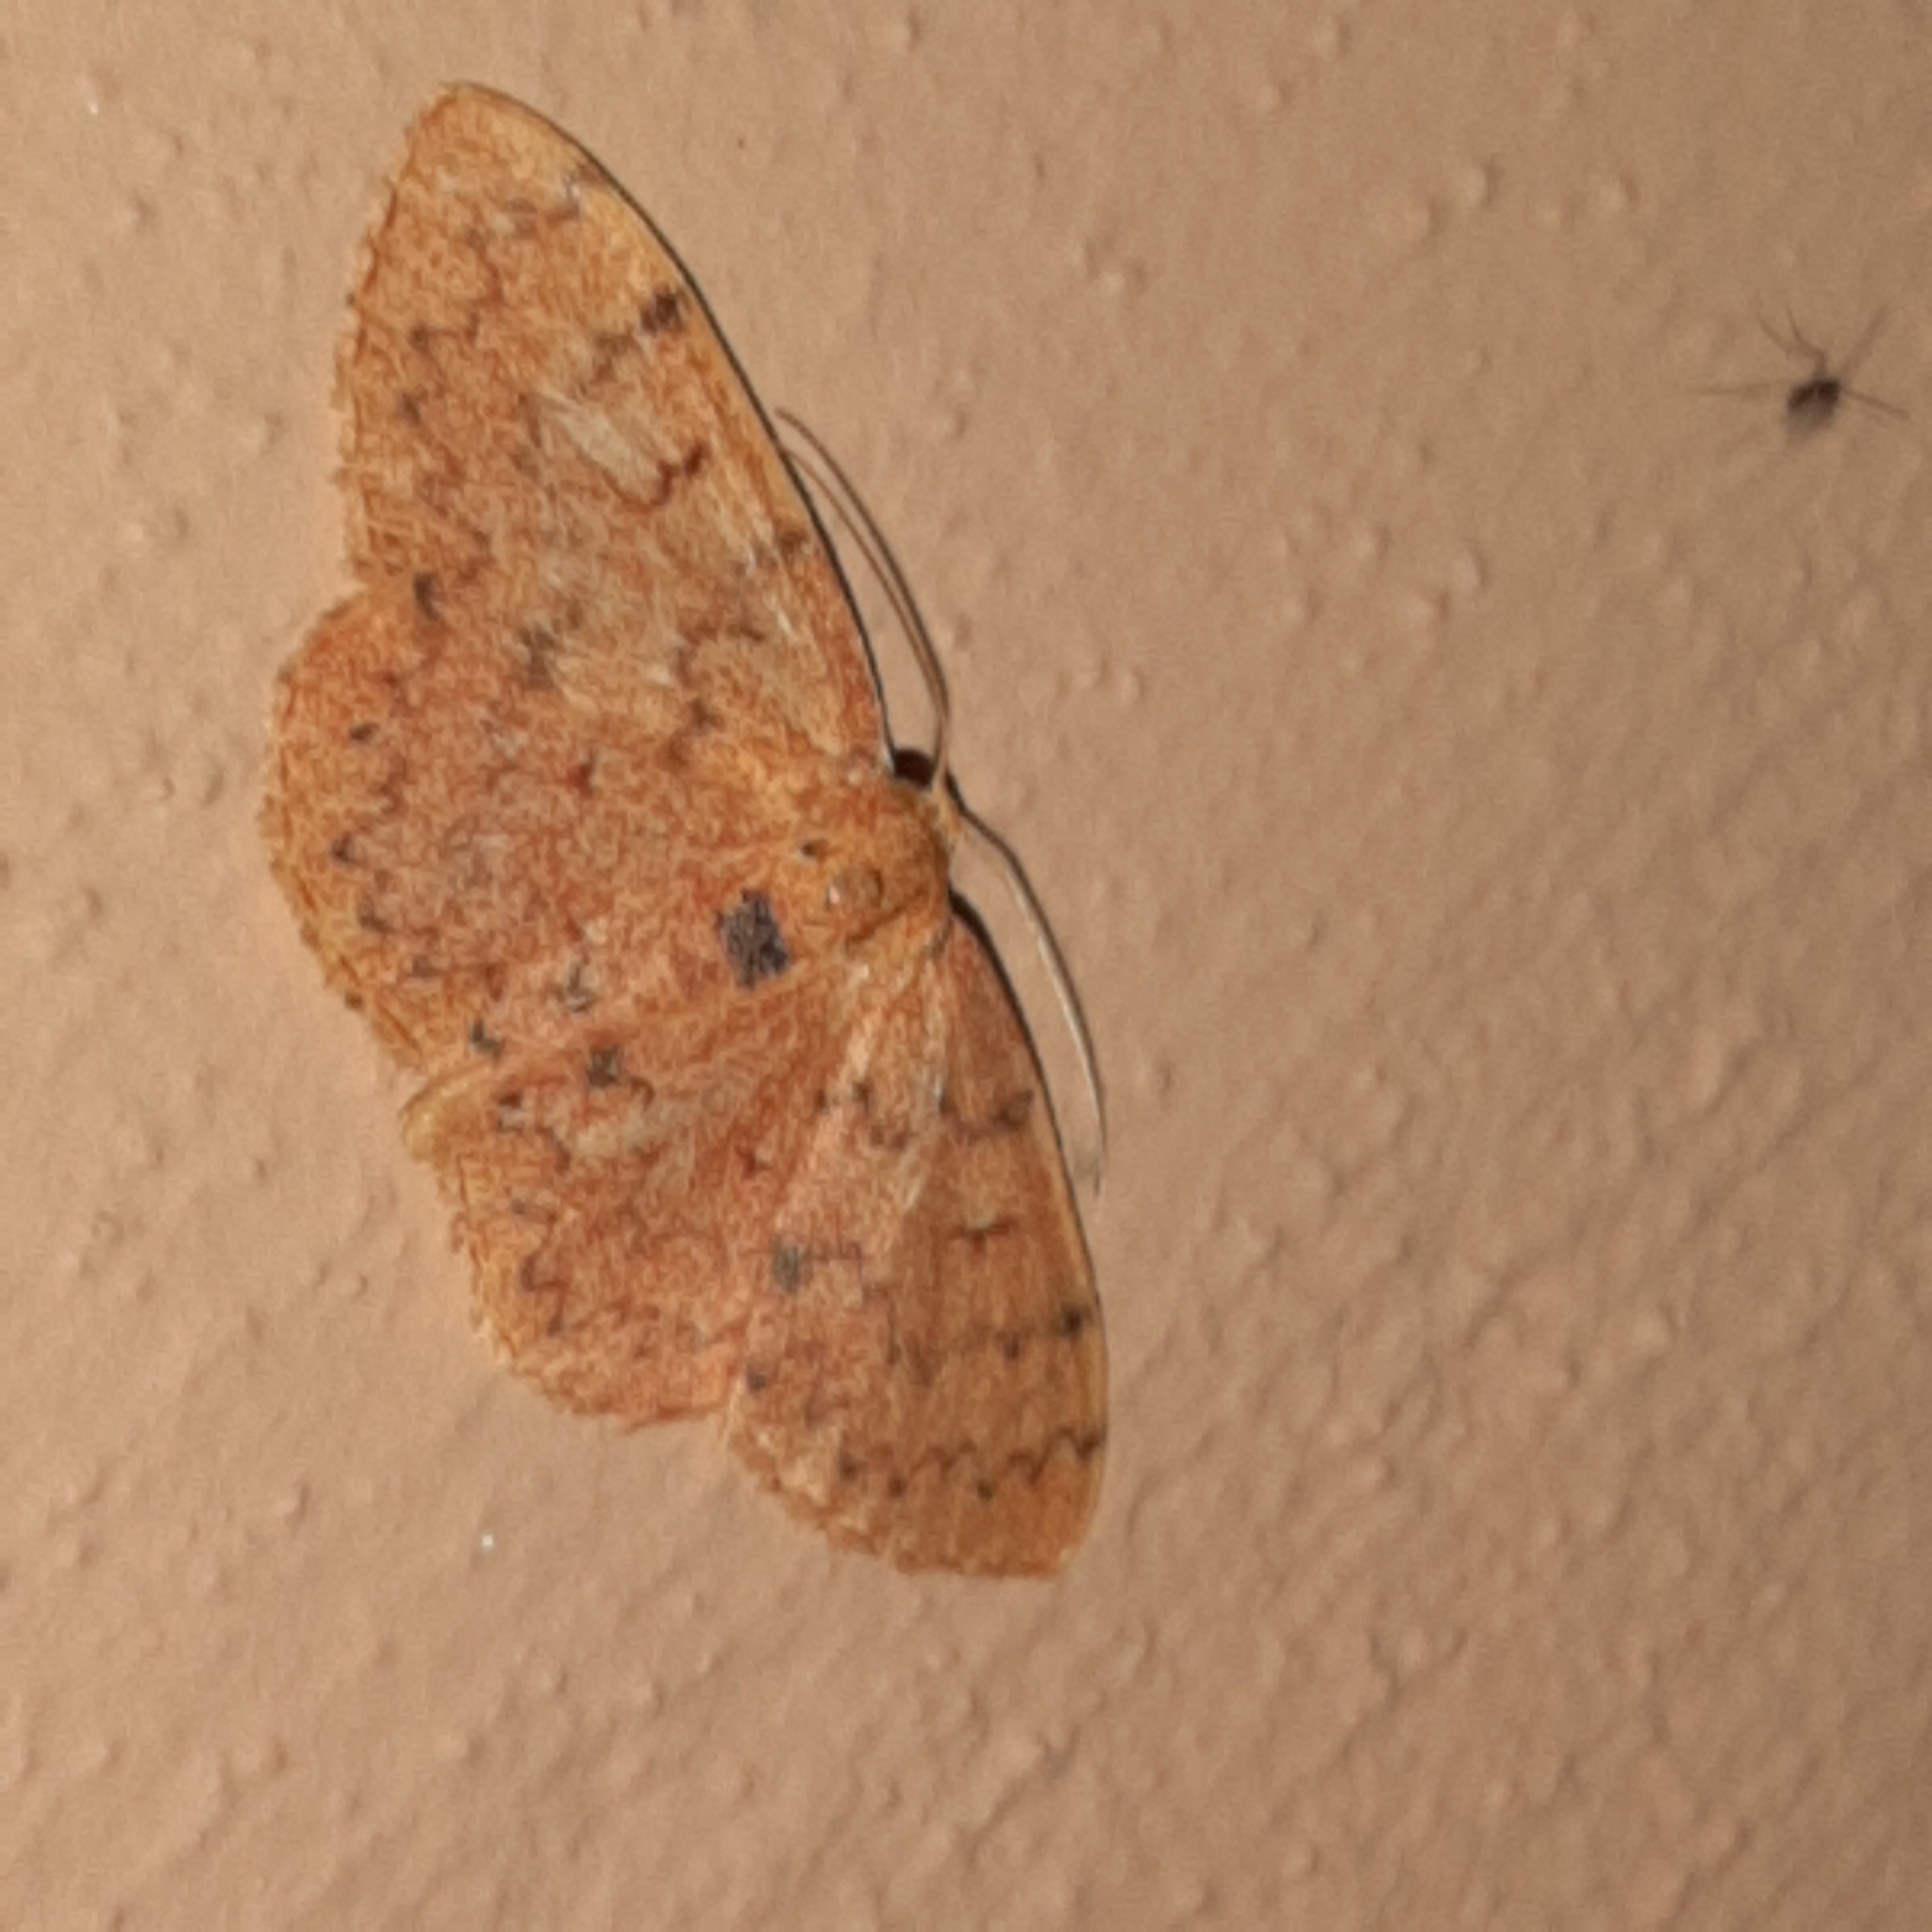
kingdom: Animalia
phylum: Arthropoda
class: Insecta
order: Lepidoptera
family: Geometridae
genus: Semaeopus
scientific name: Semaeopus trophinus
